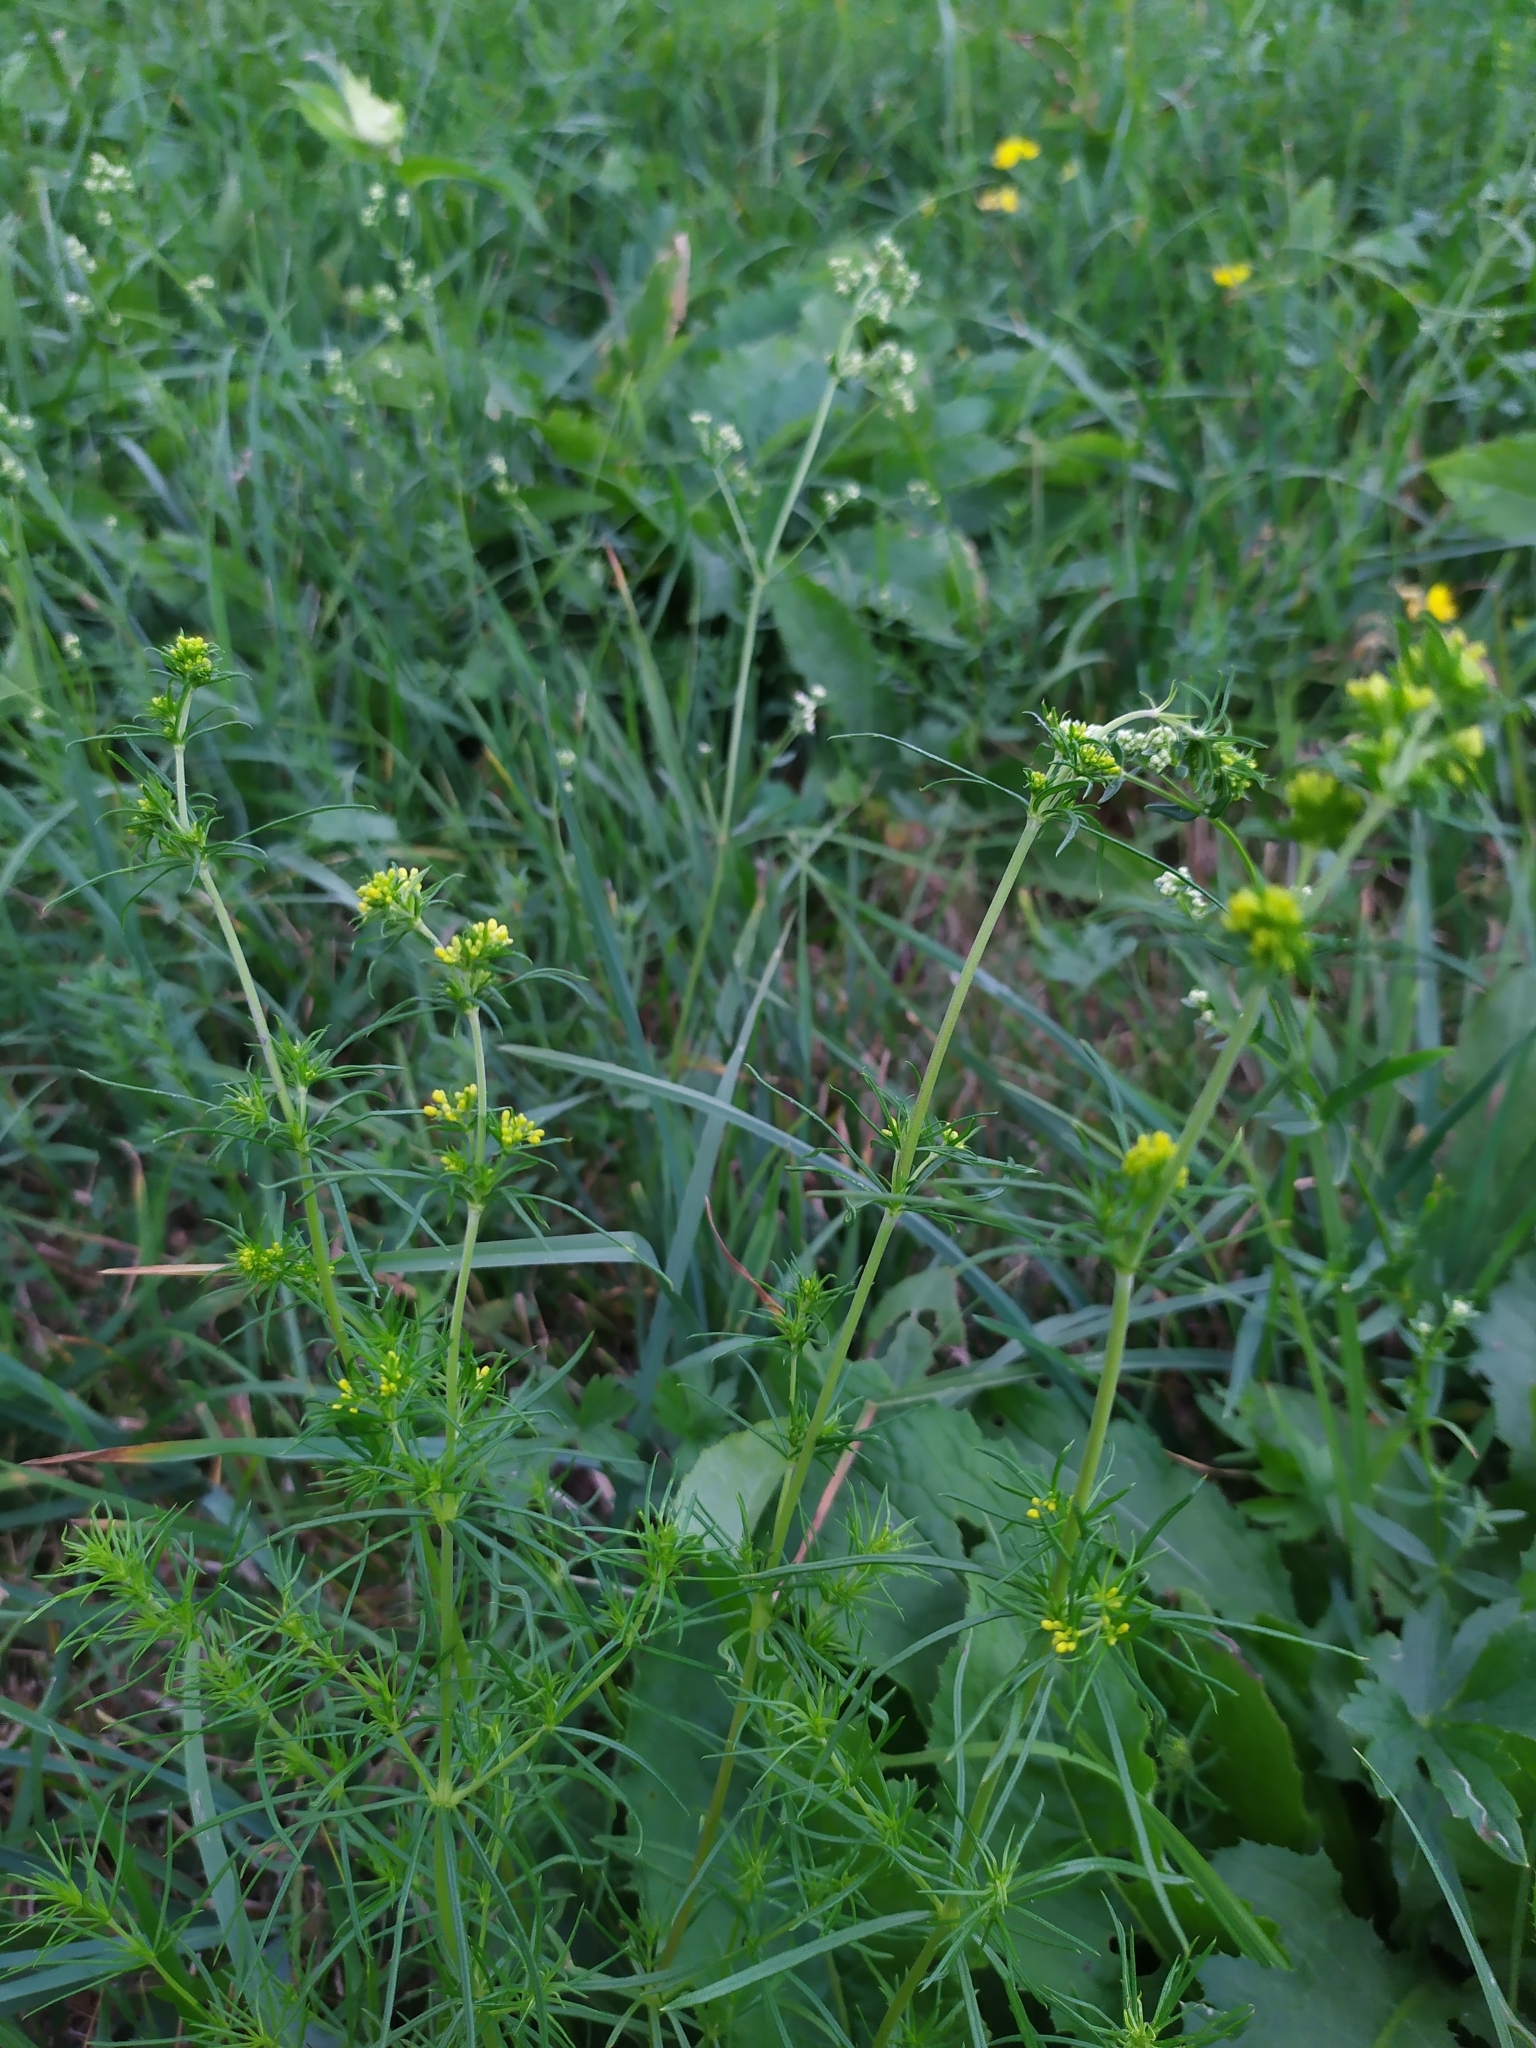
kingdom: Plantae
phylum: Tracheophyta
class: Magnoliopsida
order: Gentianales
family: Rubiaceae
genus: Galium
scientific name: Galium verum
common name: Lady's bedstraw
